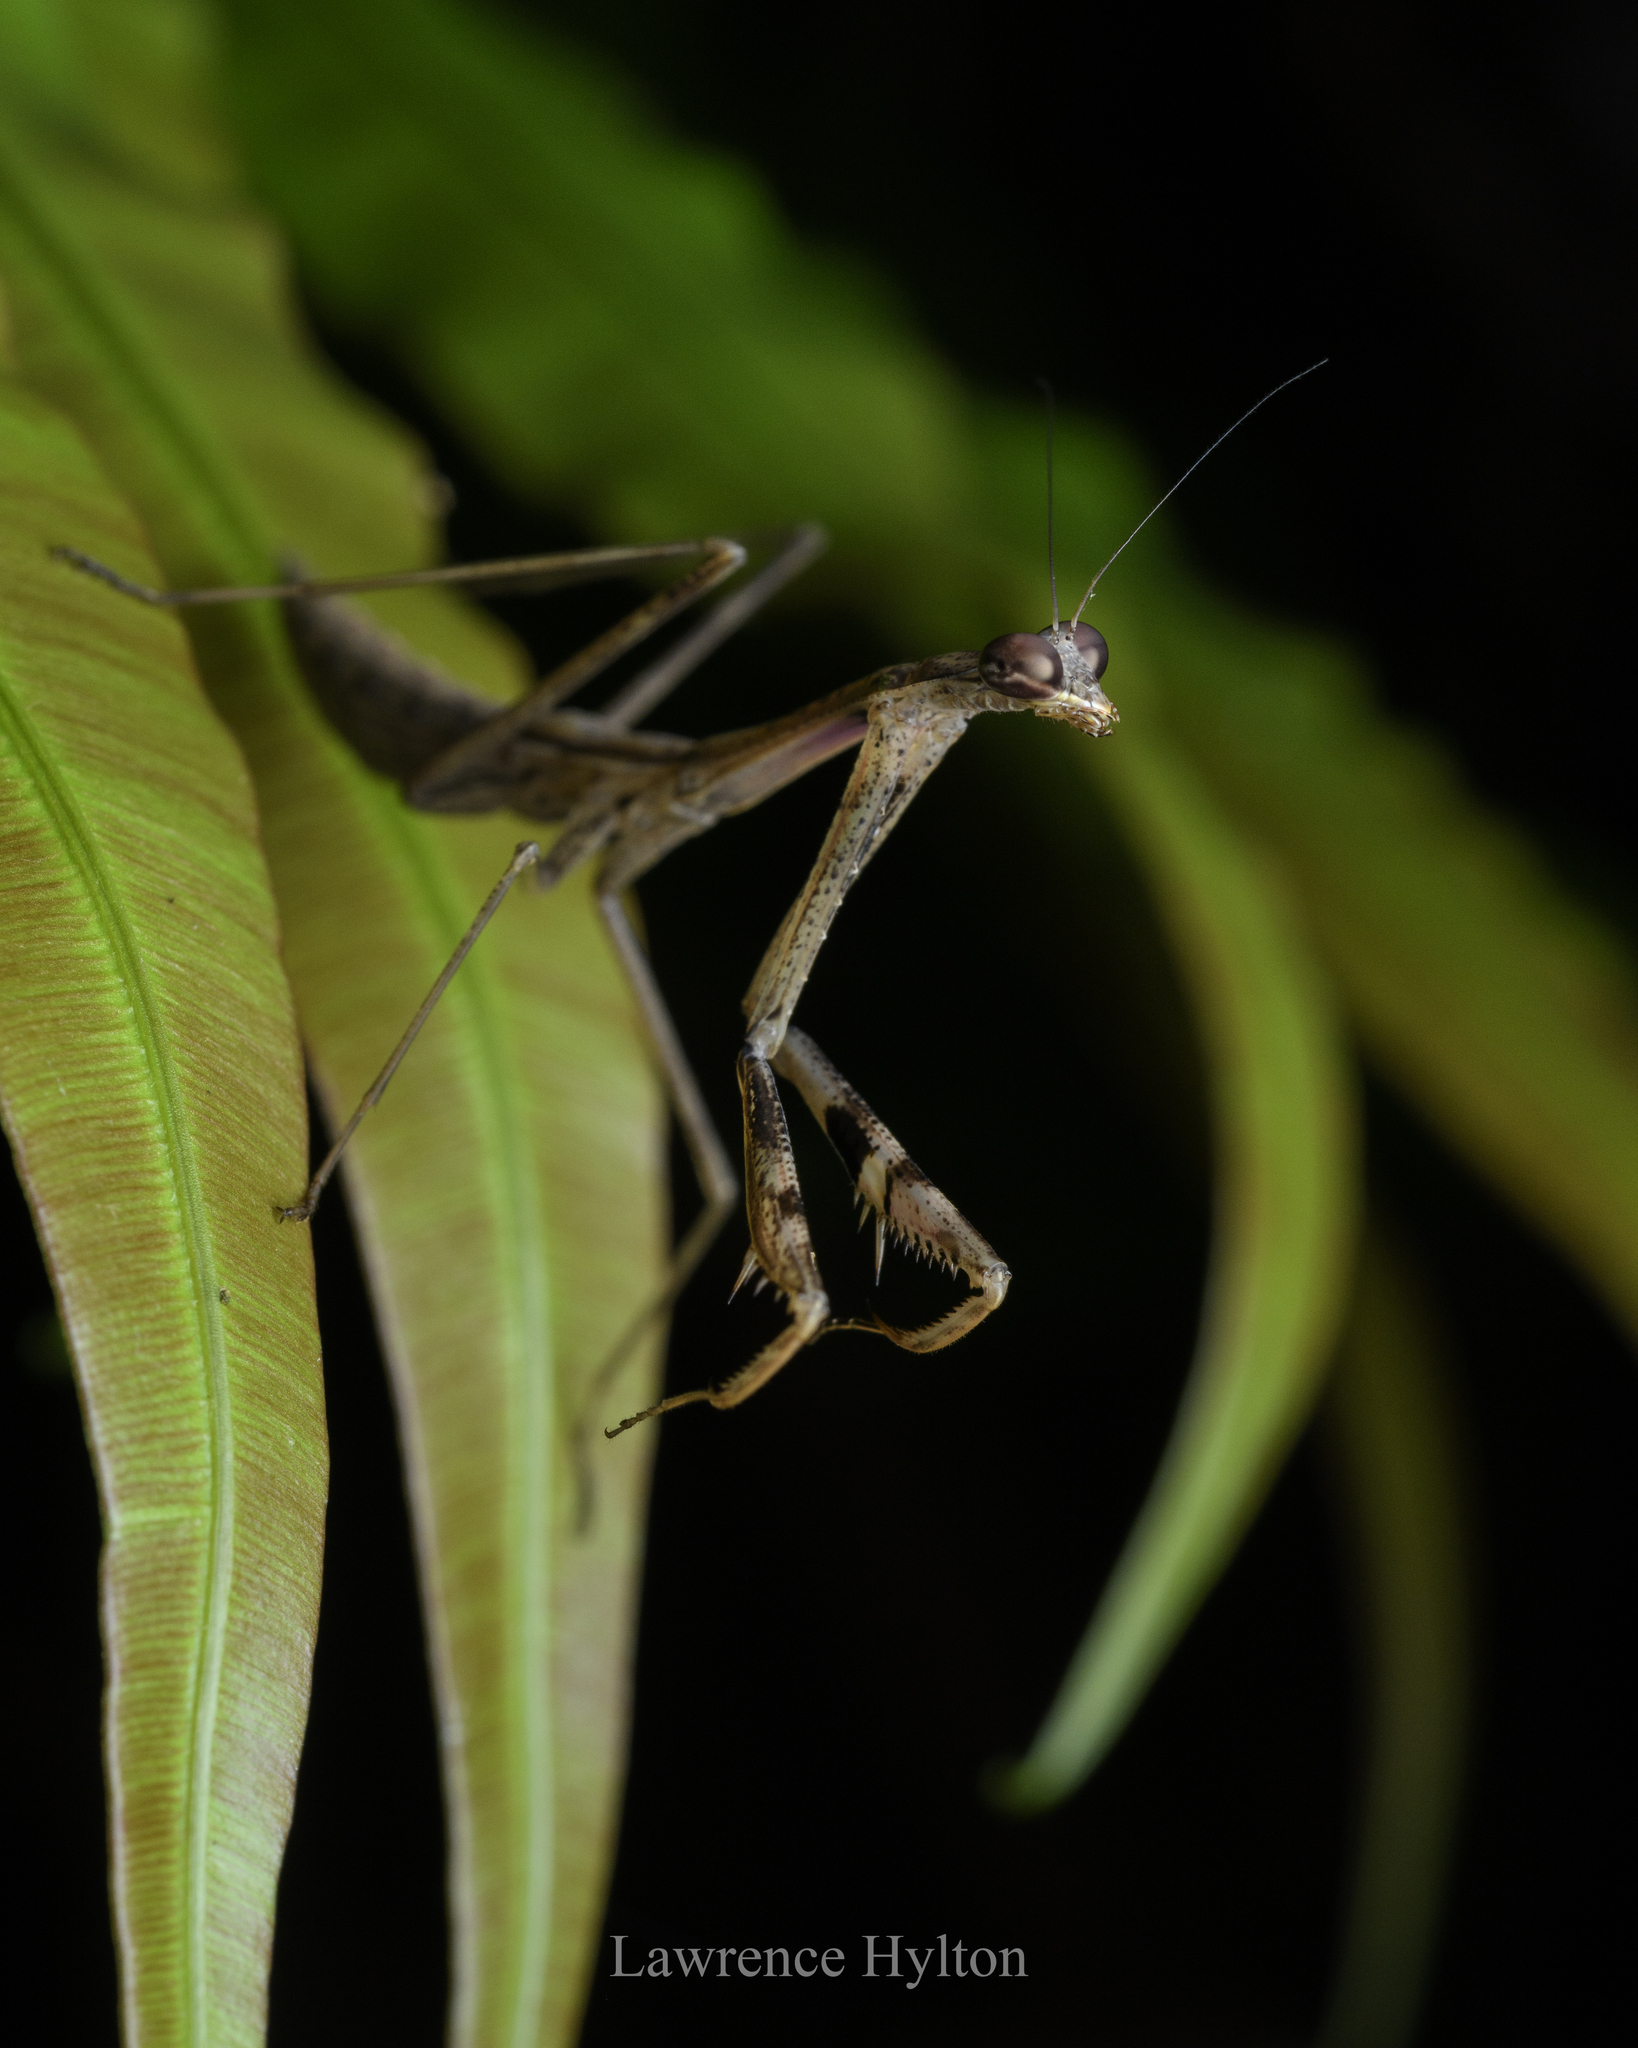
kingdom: Animalia
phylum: Arthropoda
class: Insecta
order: Mantodea
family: Mantidae
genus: Statilia
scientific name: Statilia maculata
